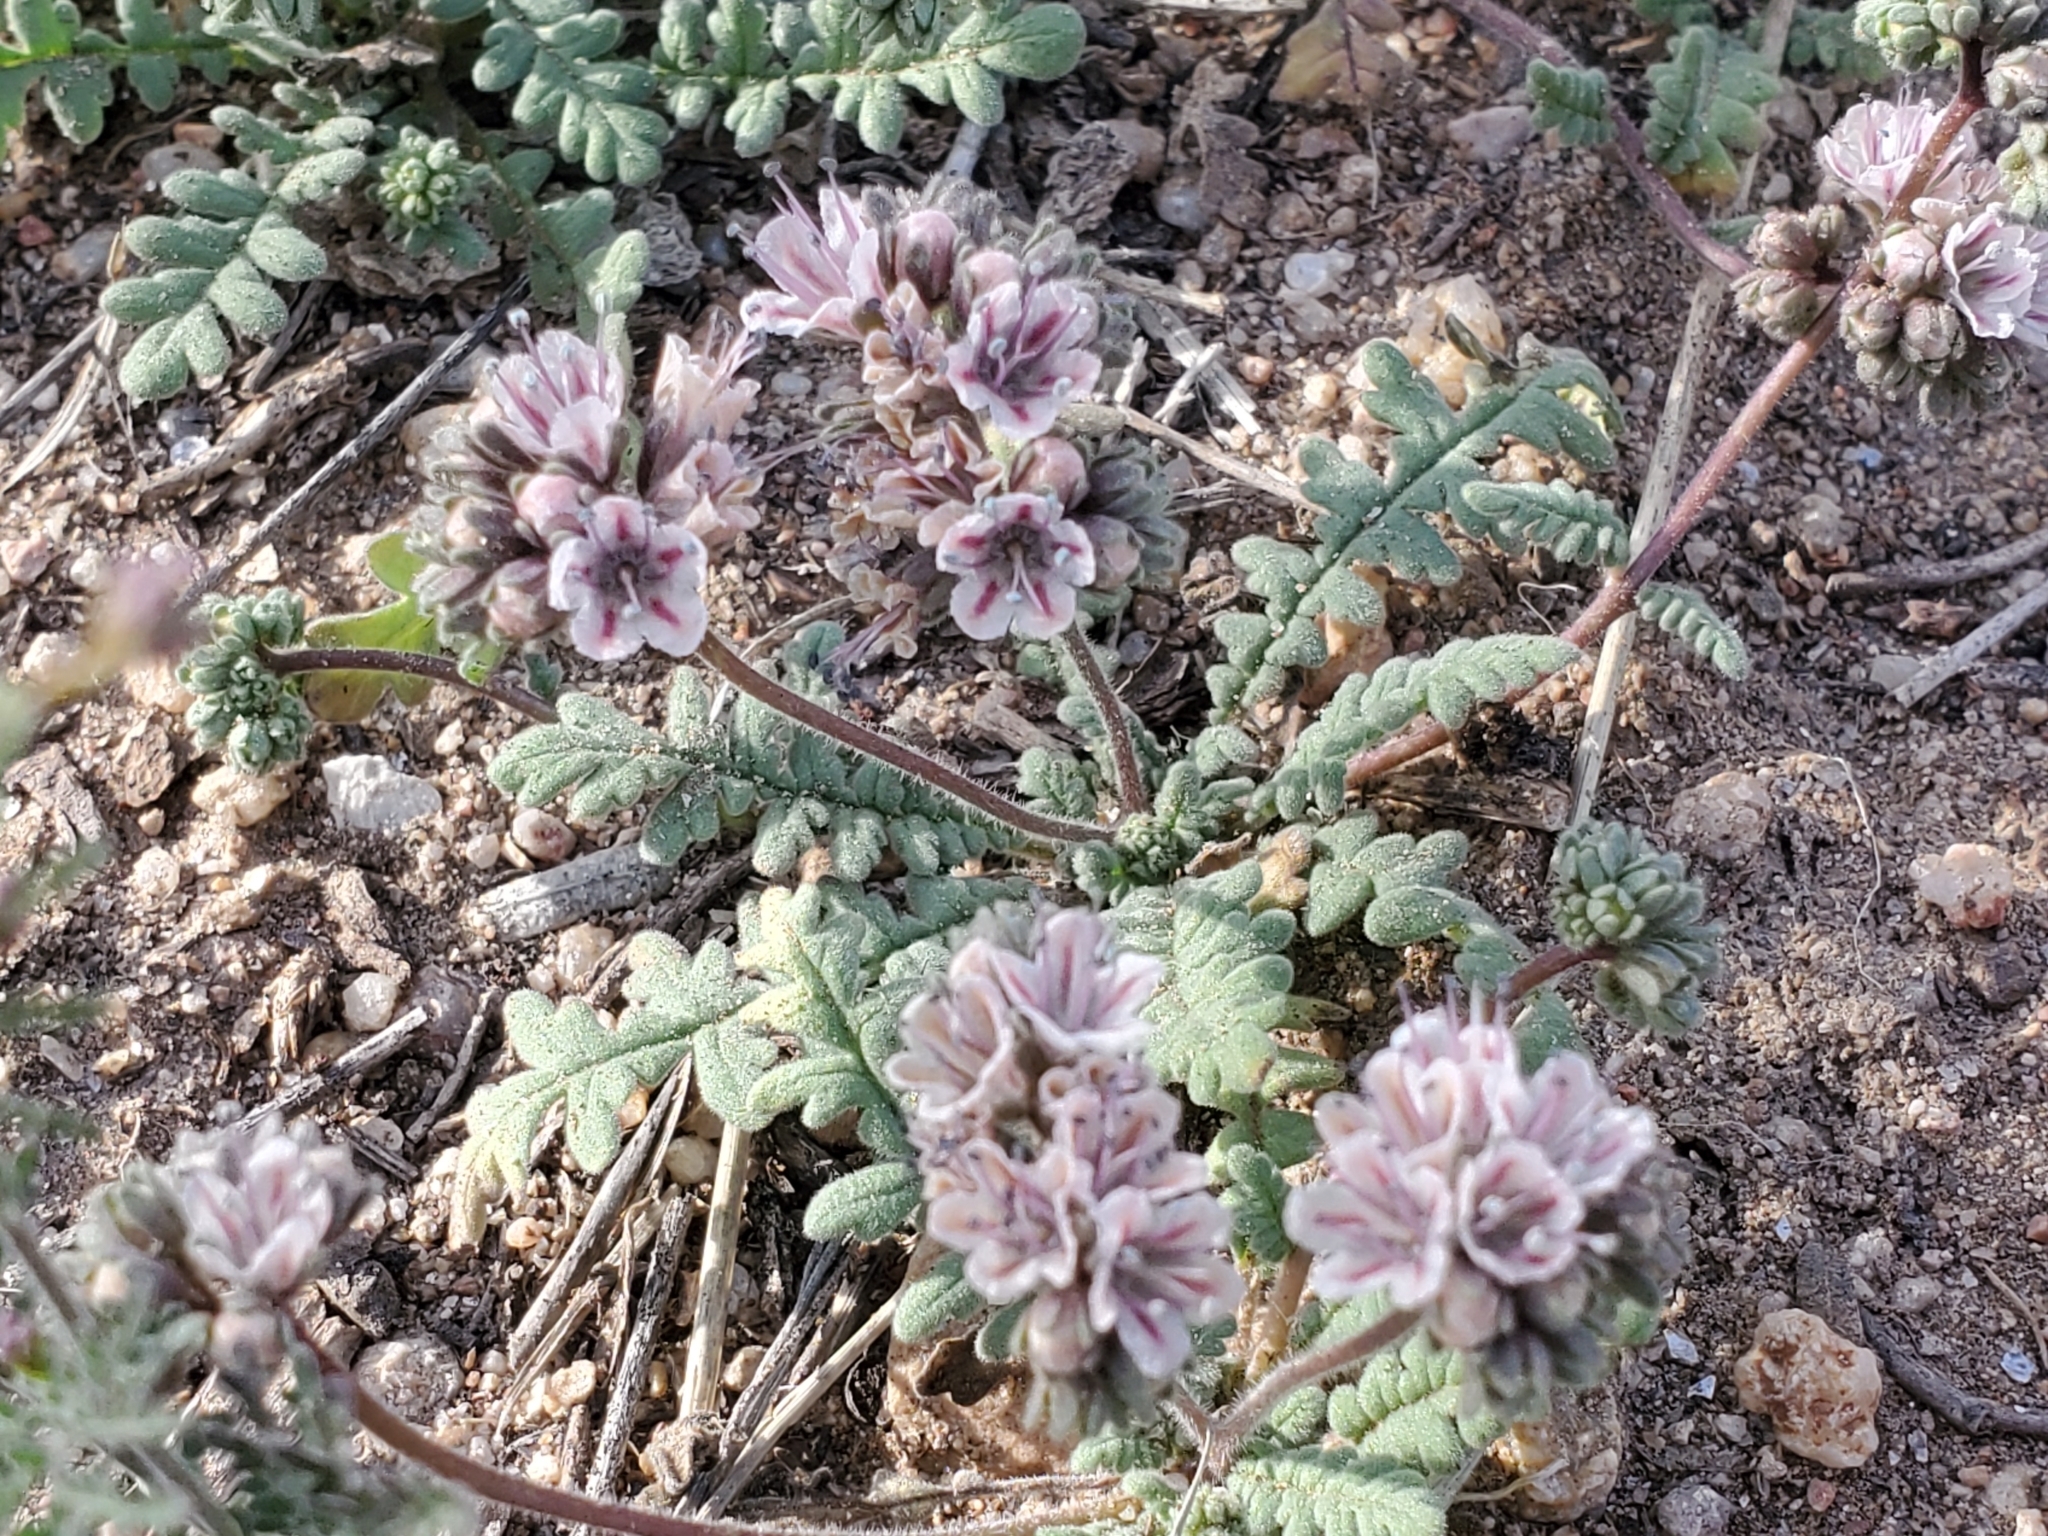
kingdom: Plantae
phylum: Tracheophyta
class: Magnoliopsida
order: Boraginales
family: Hydrophyllaceae
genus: Phacelia
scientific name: Phacelia arizonica
